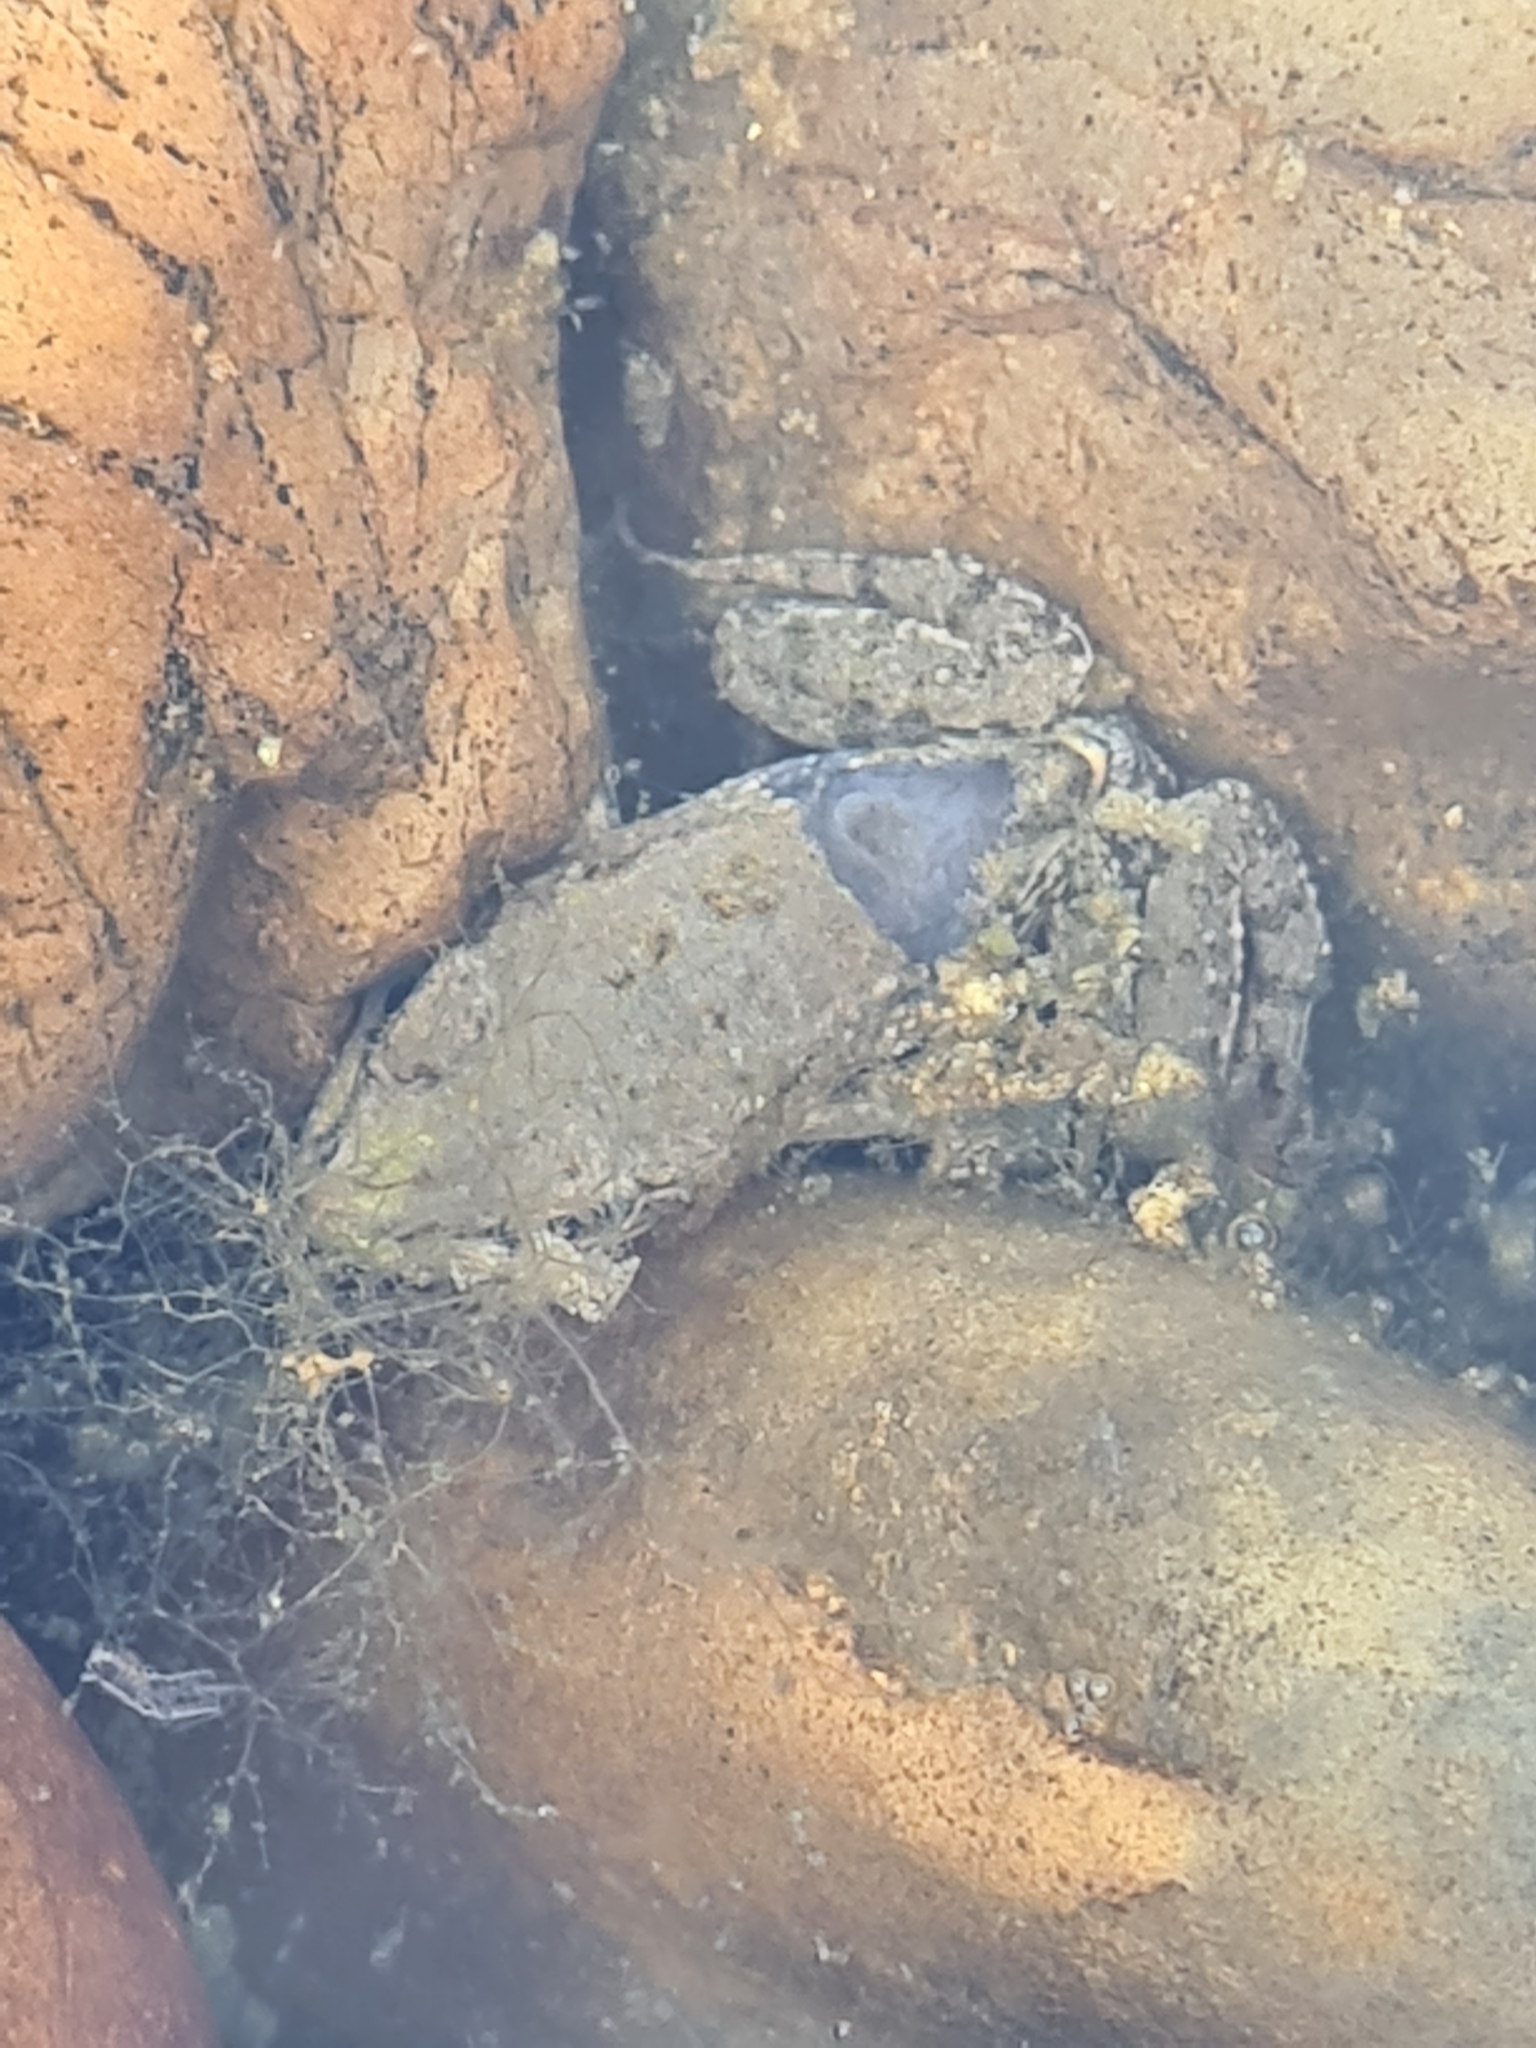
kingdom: Animalia
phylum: Chordata
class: Amphibia
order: Anura
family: Ranidae
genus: Pelophylax
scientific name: Pelophylax
